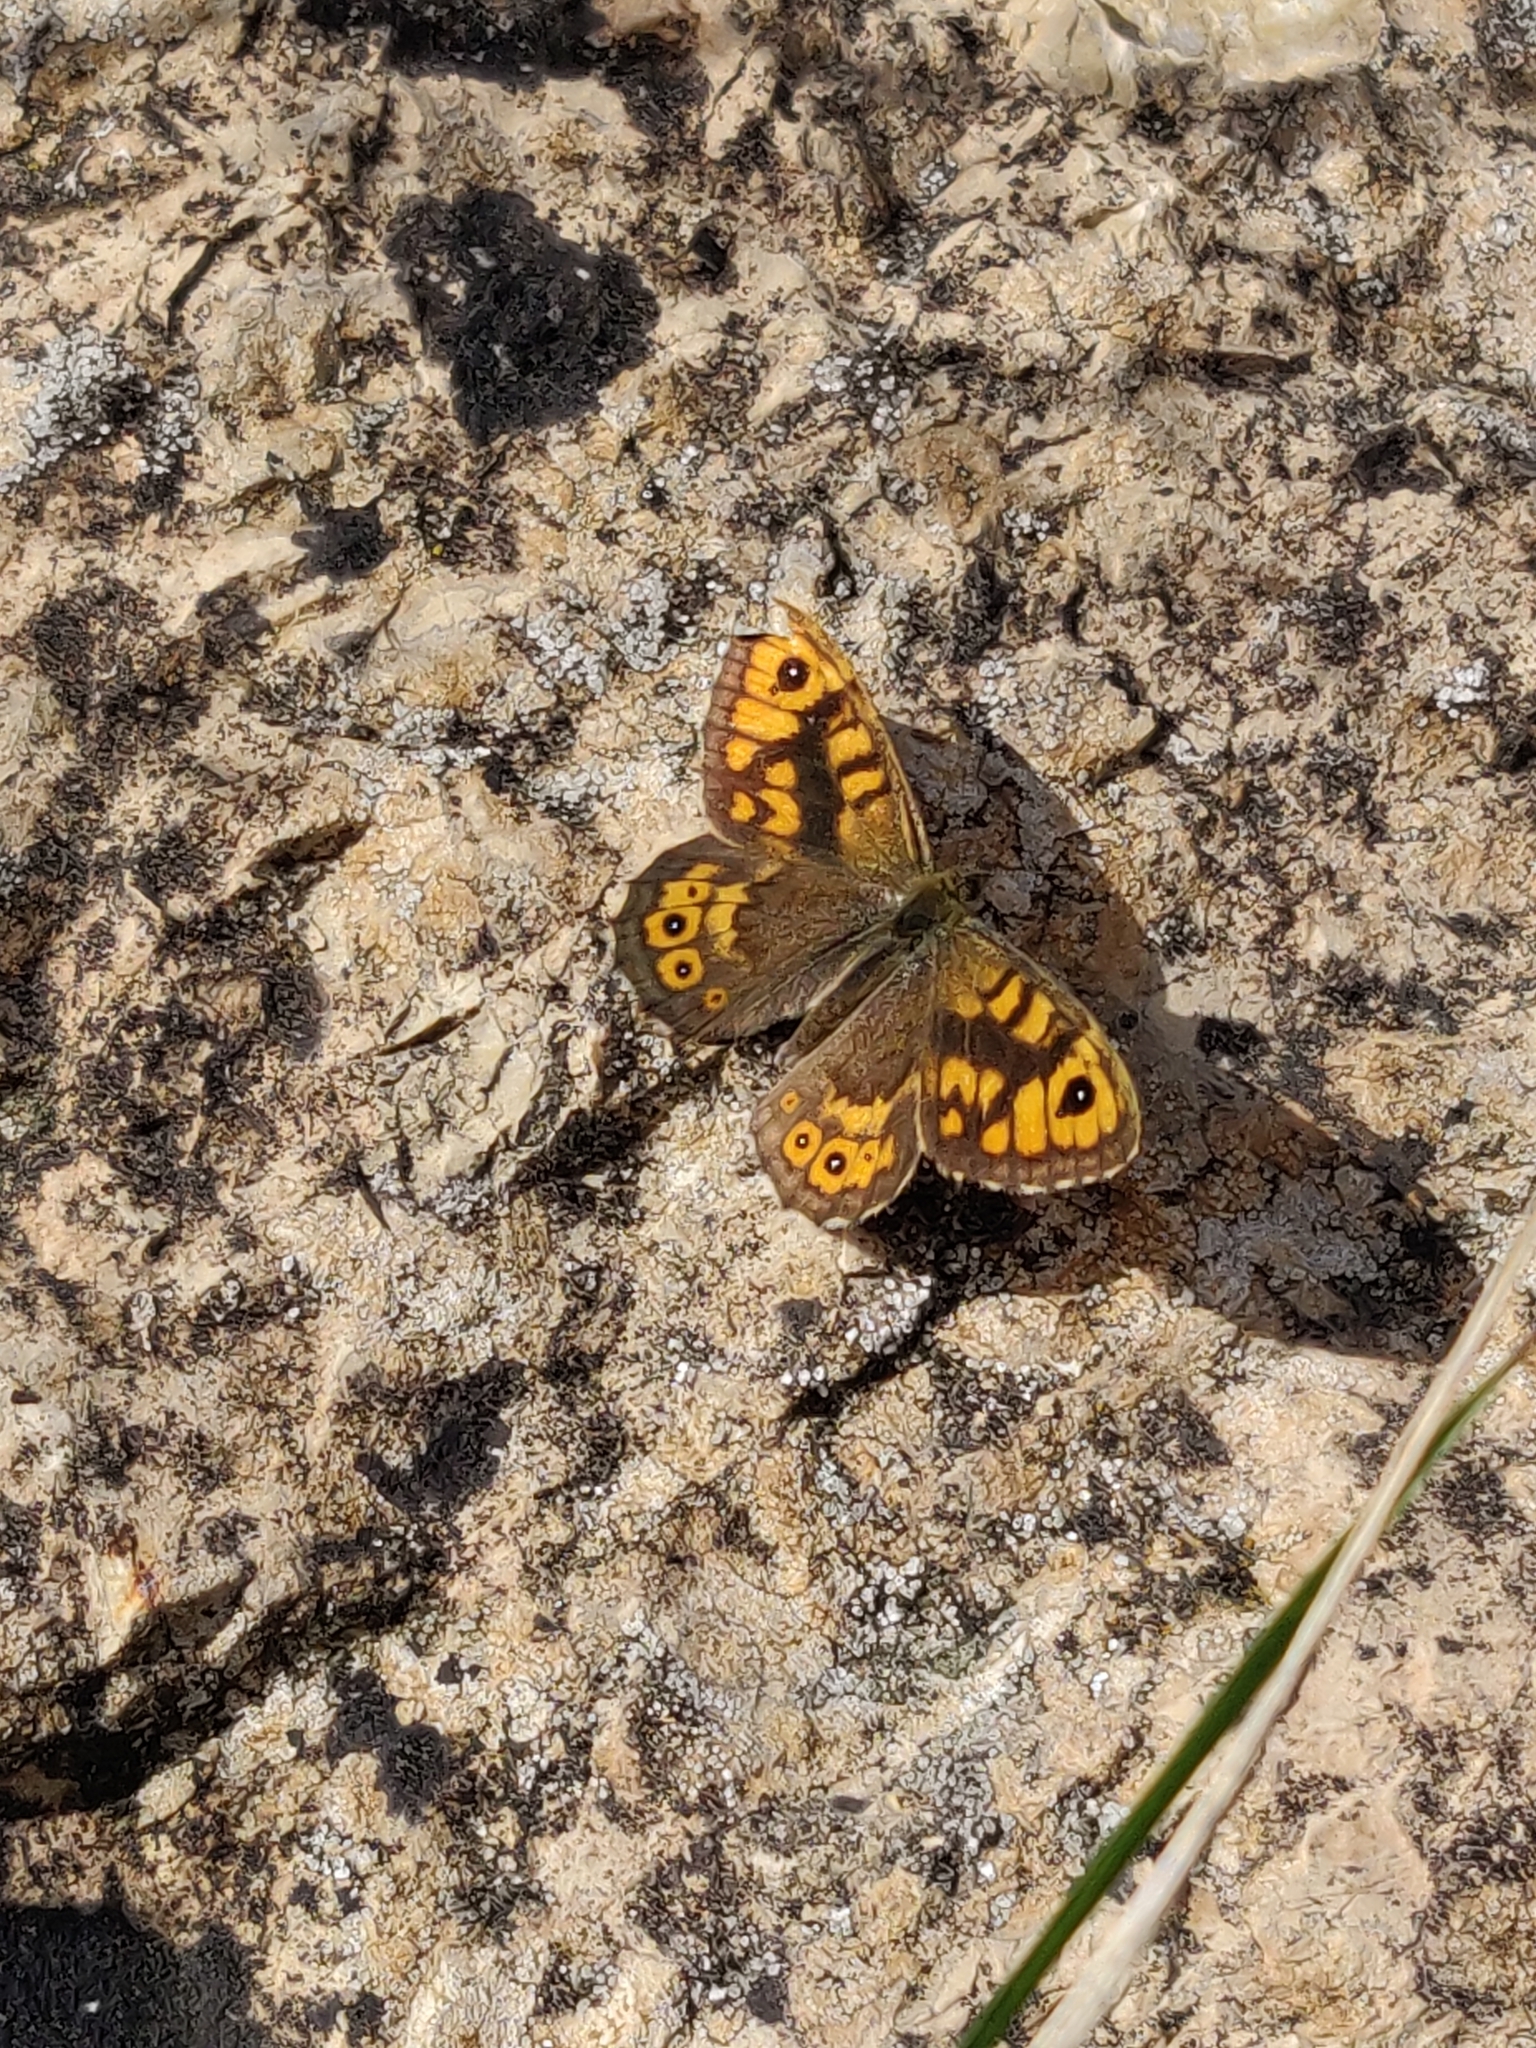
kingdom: Animalia
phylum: Arthropoda
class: Insecta
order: Lepidoptera
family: Nymphalidae
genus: Pararge
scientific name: Pararge Lasiommata megera
